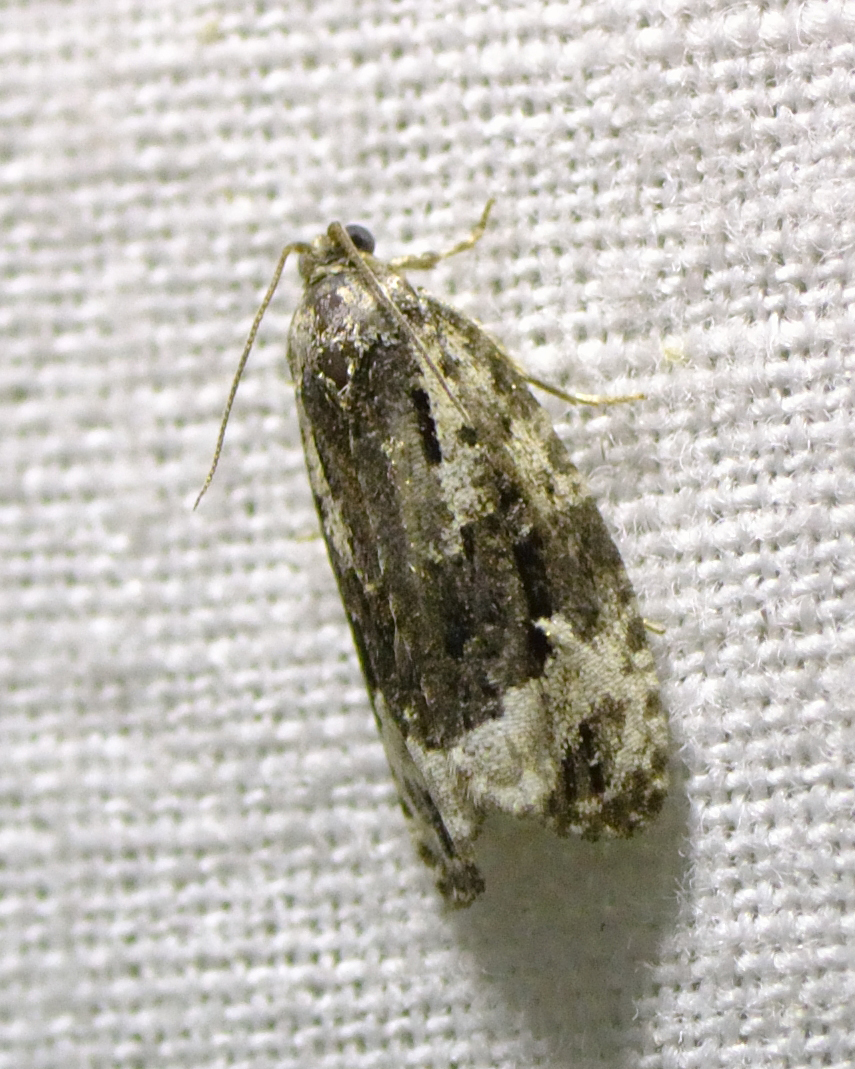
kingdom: Animalia
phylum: Arthropoda
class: Insecta
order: Lepidoptera
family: Tortricidae
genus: Apotomis
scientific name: Apotomis turbidana
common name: White-shouldered marble
